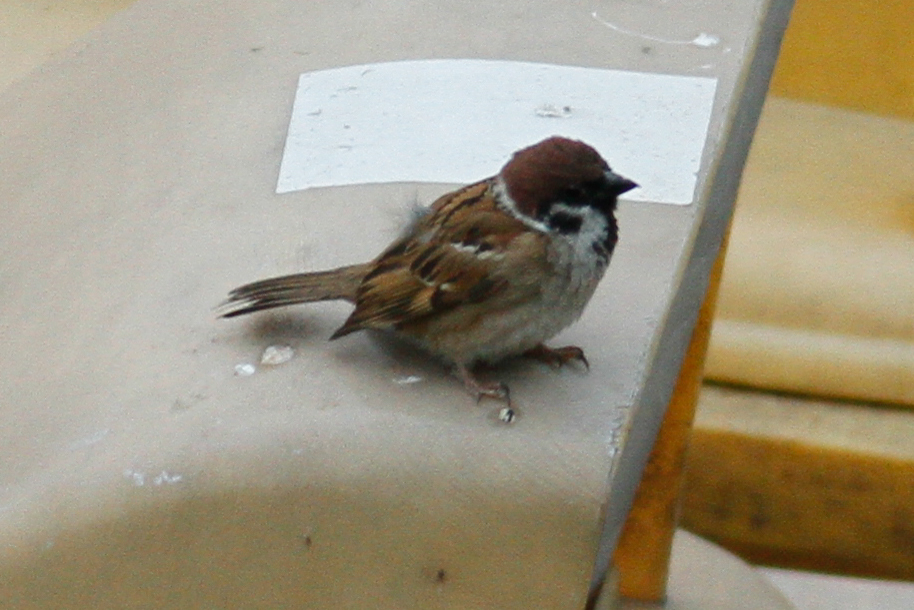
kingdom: Animalia
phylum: Chordata
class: Aves
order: Passeriformes
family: Passeridae
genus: Passer
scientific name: Passer montanus
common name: Eurasian tree sparrow
